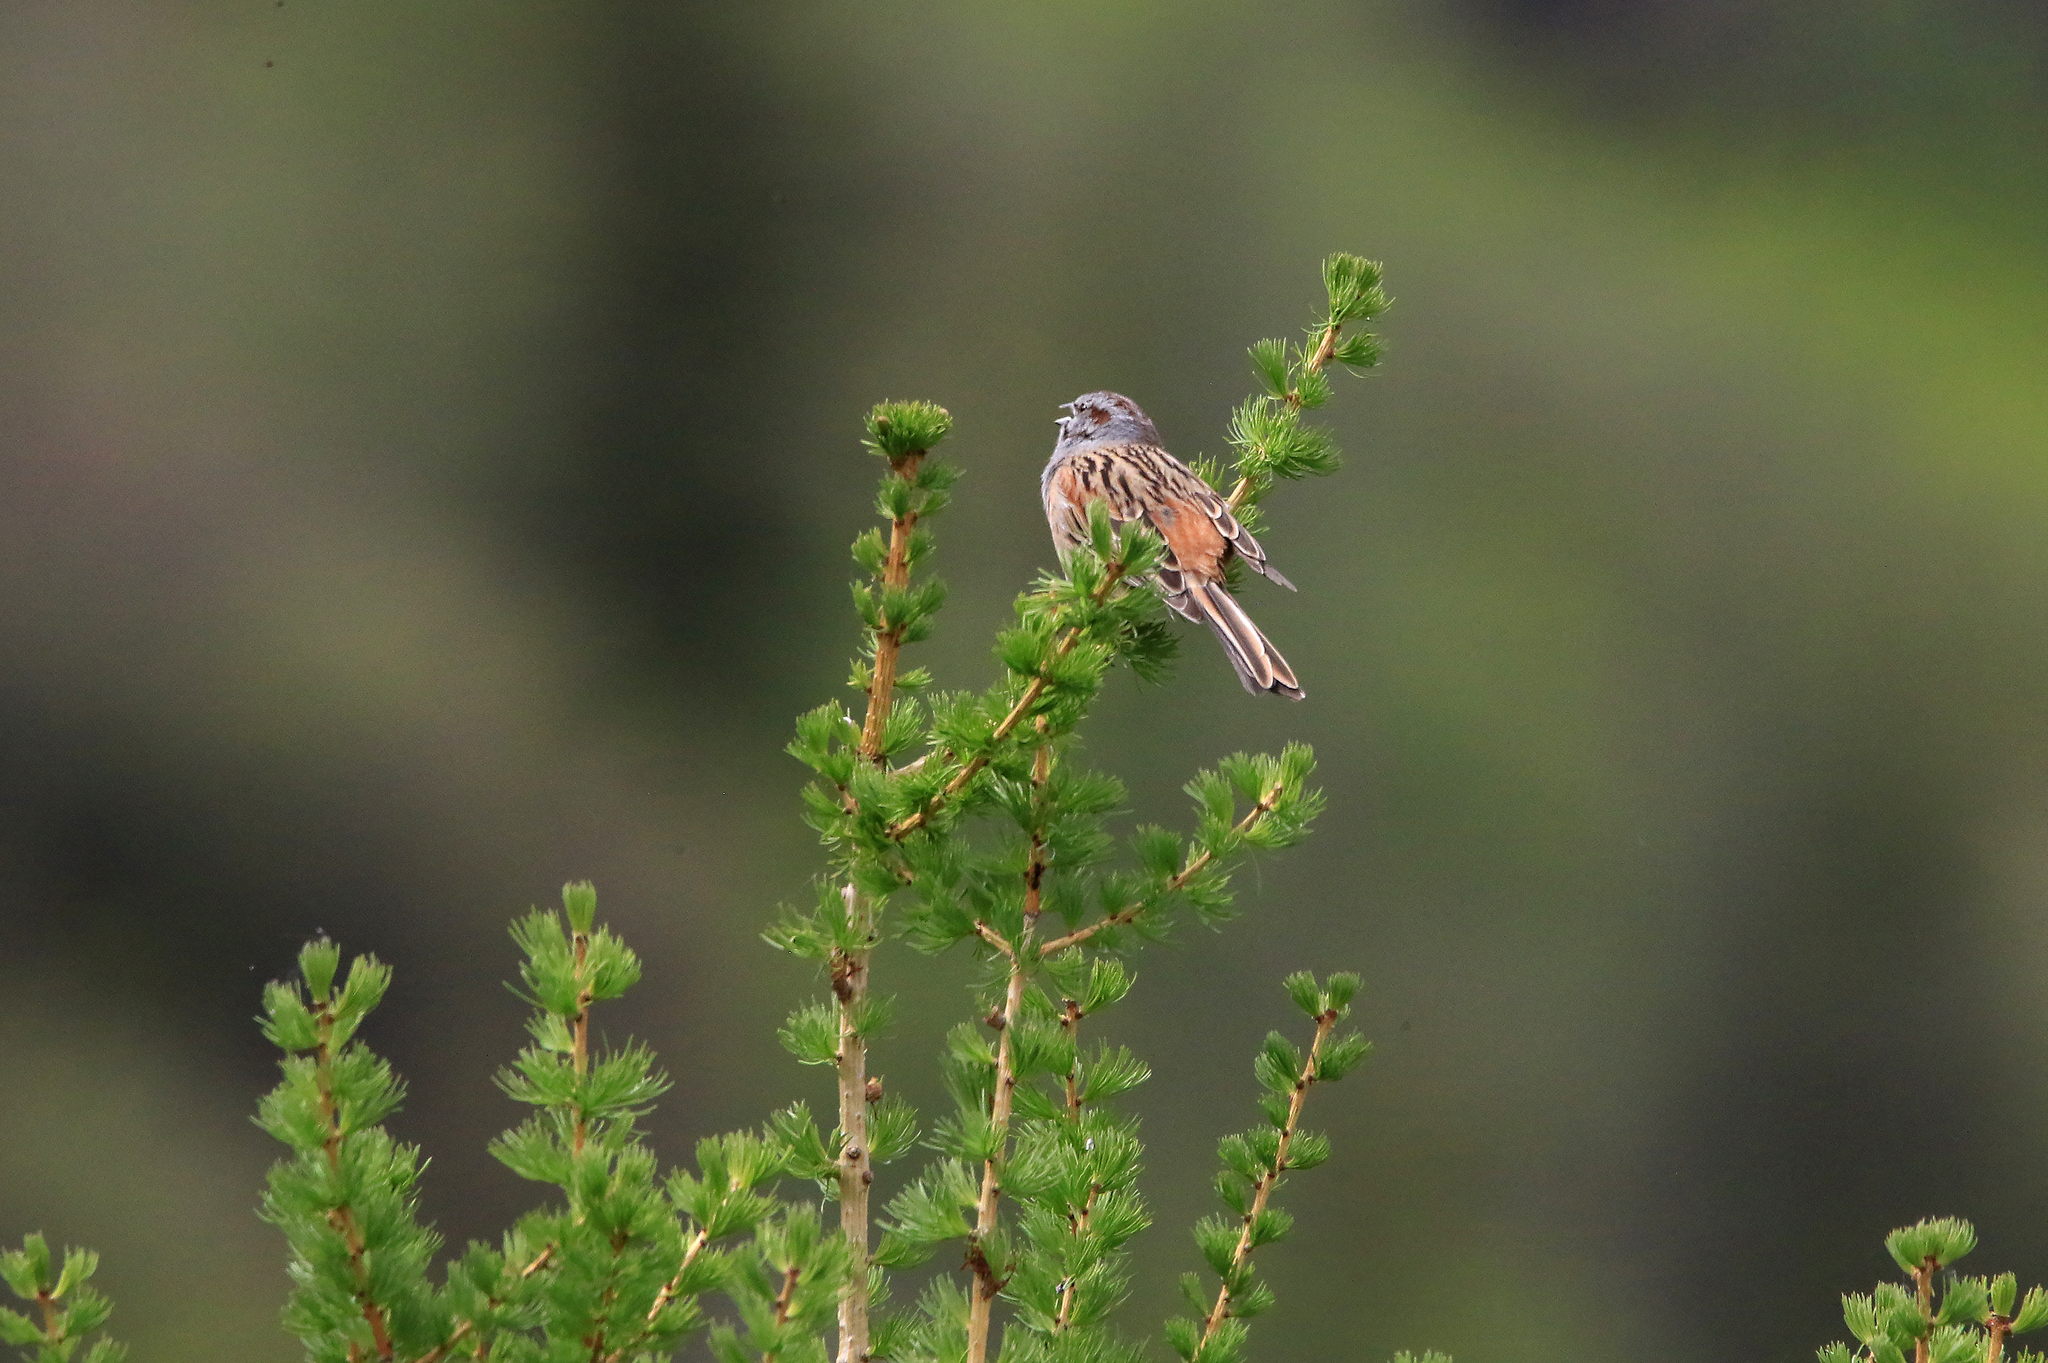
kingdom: Animalia
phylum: Chordata
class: Aves
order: Passeriformes
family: Emberizidae
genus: Emberiza
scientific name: Emberiza godlewskii
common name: Godlewski's bunting
